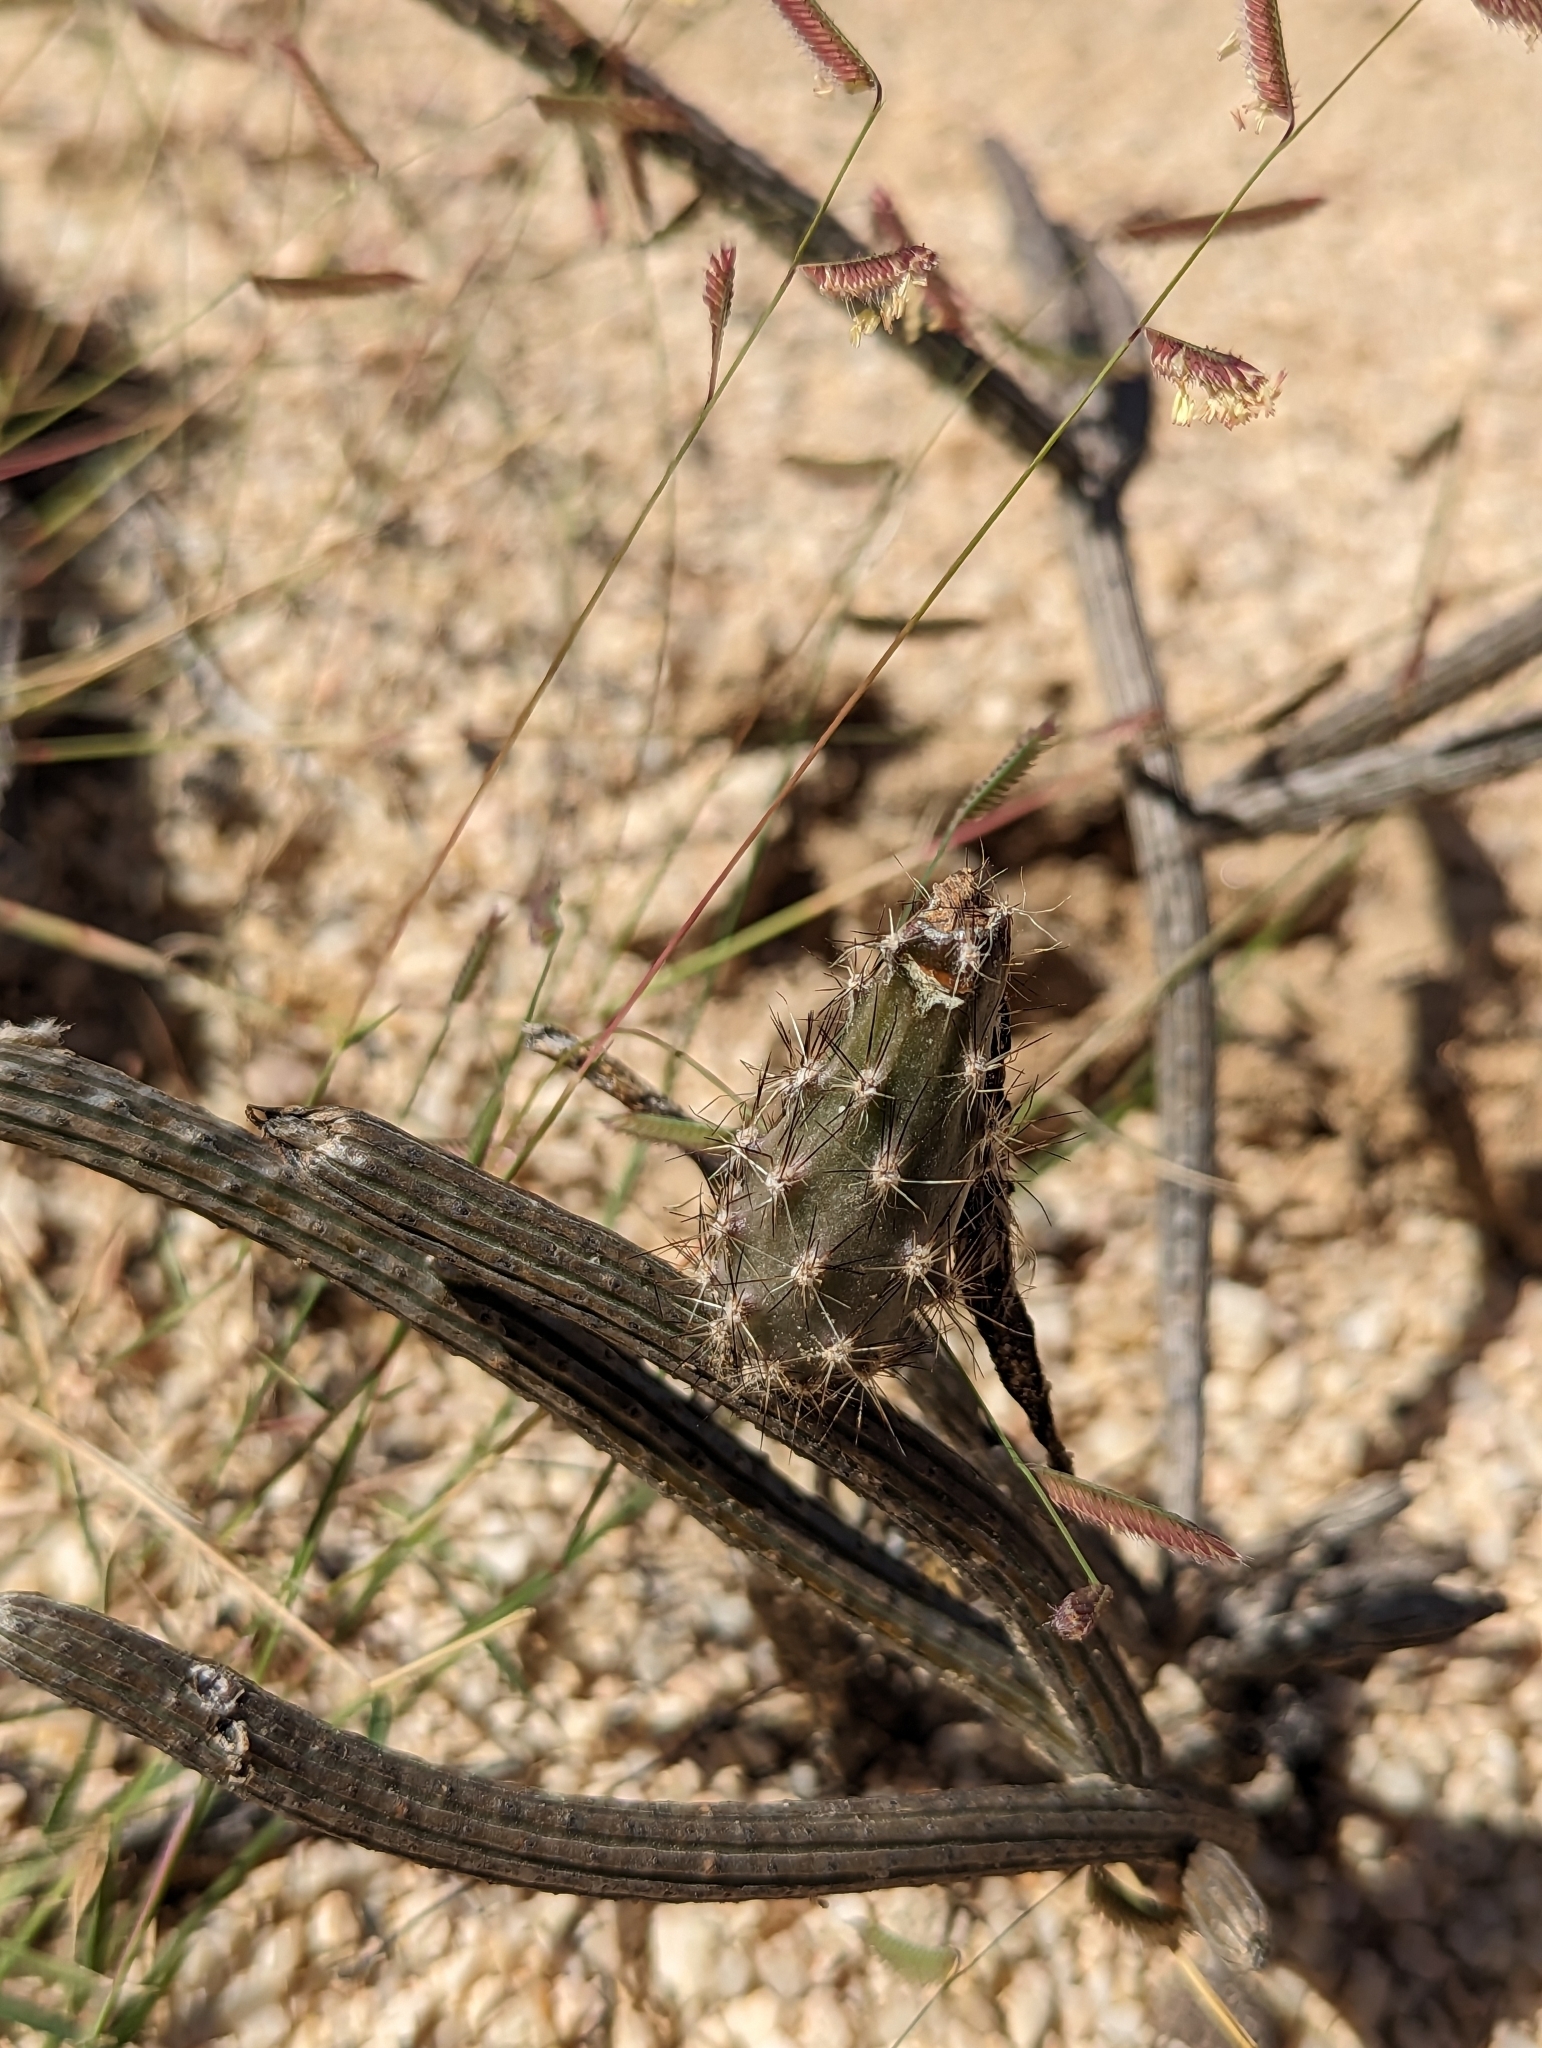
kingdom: Plantae
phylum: Tracheophyta
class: Magnoliopsida
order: Caryophyllales
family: Cactaceae
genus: Peniocereus
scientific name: Peniocereus striatus
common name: Gearstem cactus
